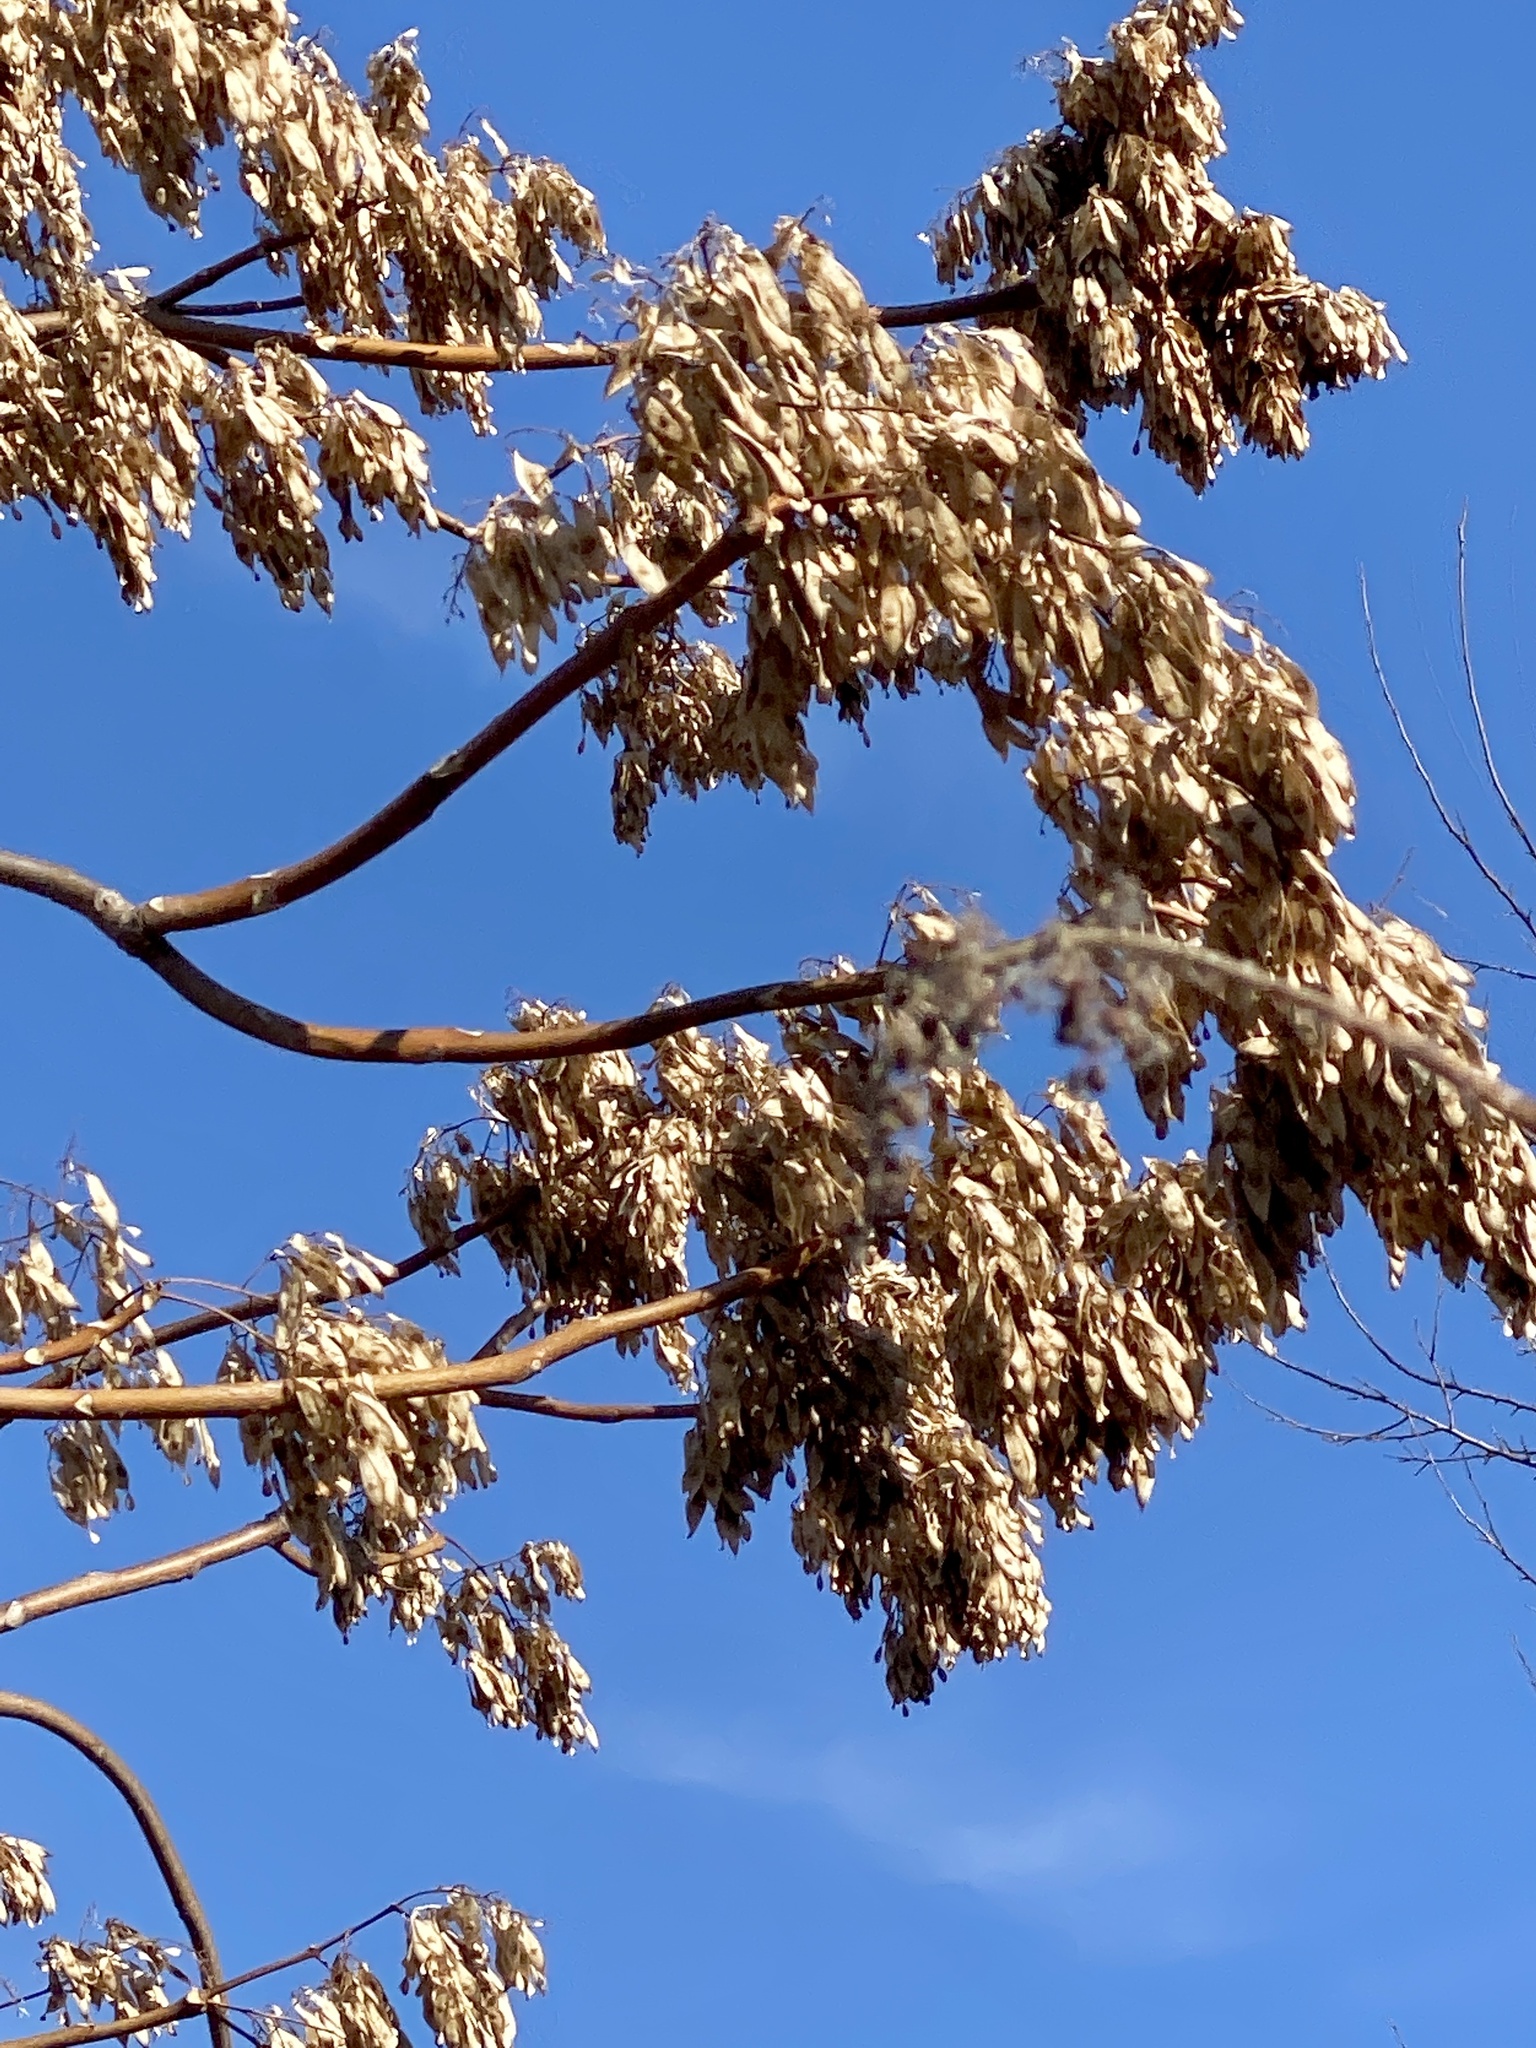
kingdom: Plantae
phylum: Tracheophyta
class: Magnoliopsida
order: Sapindales
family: Simaroubaceae
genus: Ailanthus
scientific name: Ailanthus altissima
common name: Tree-of-heaven
